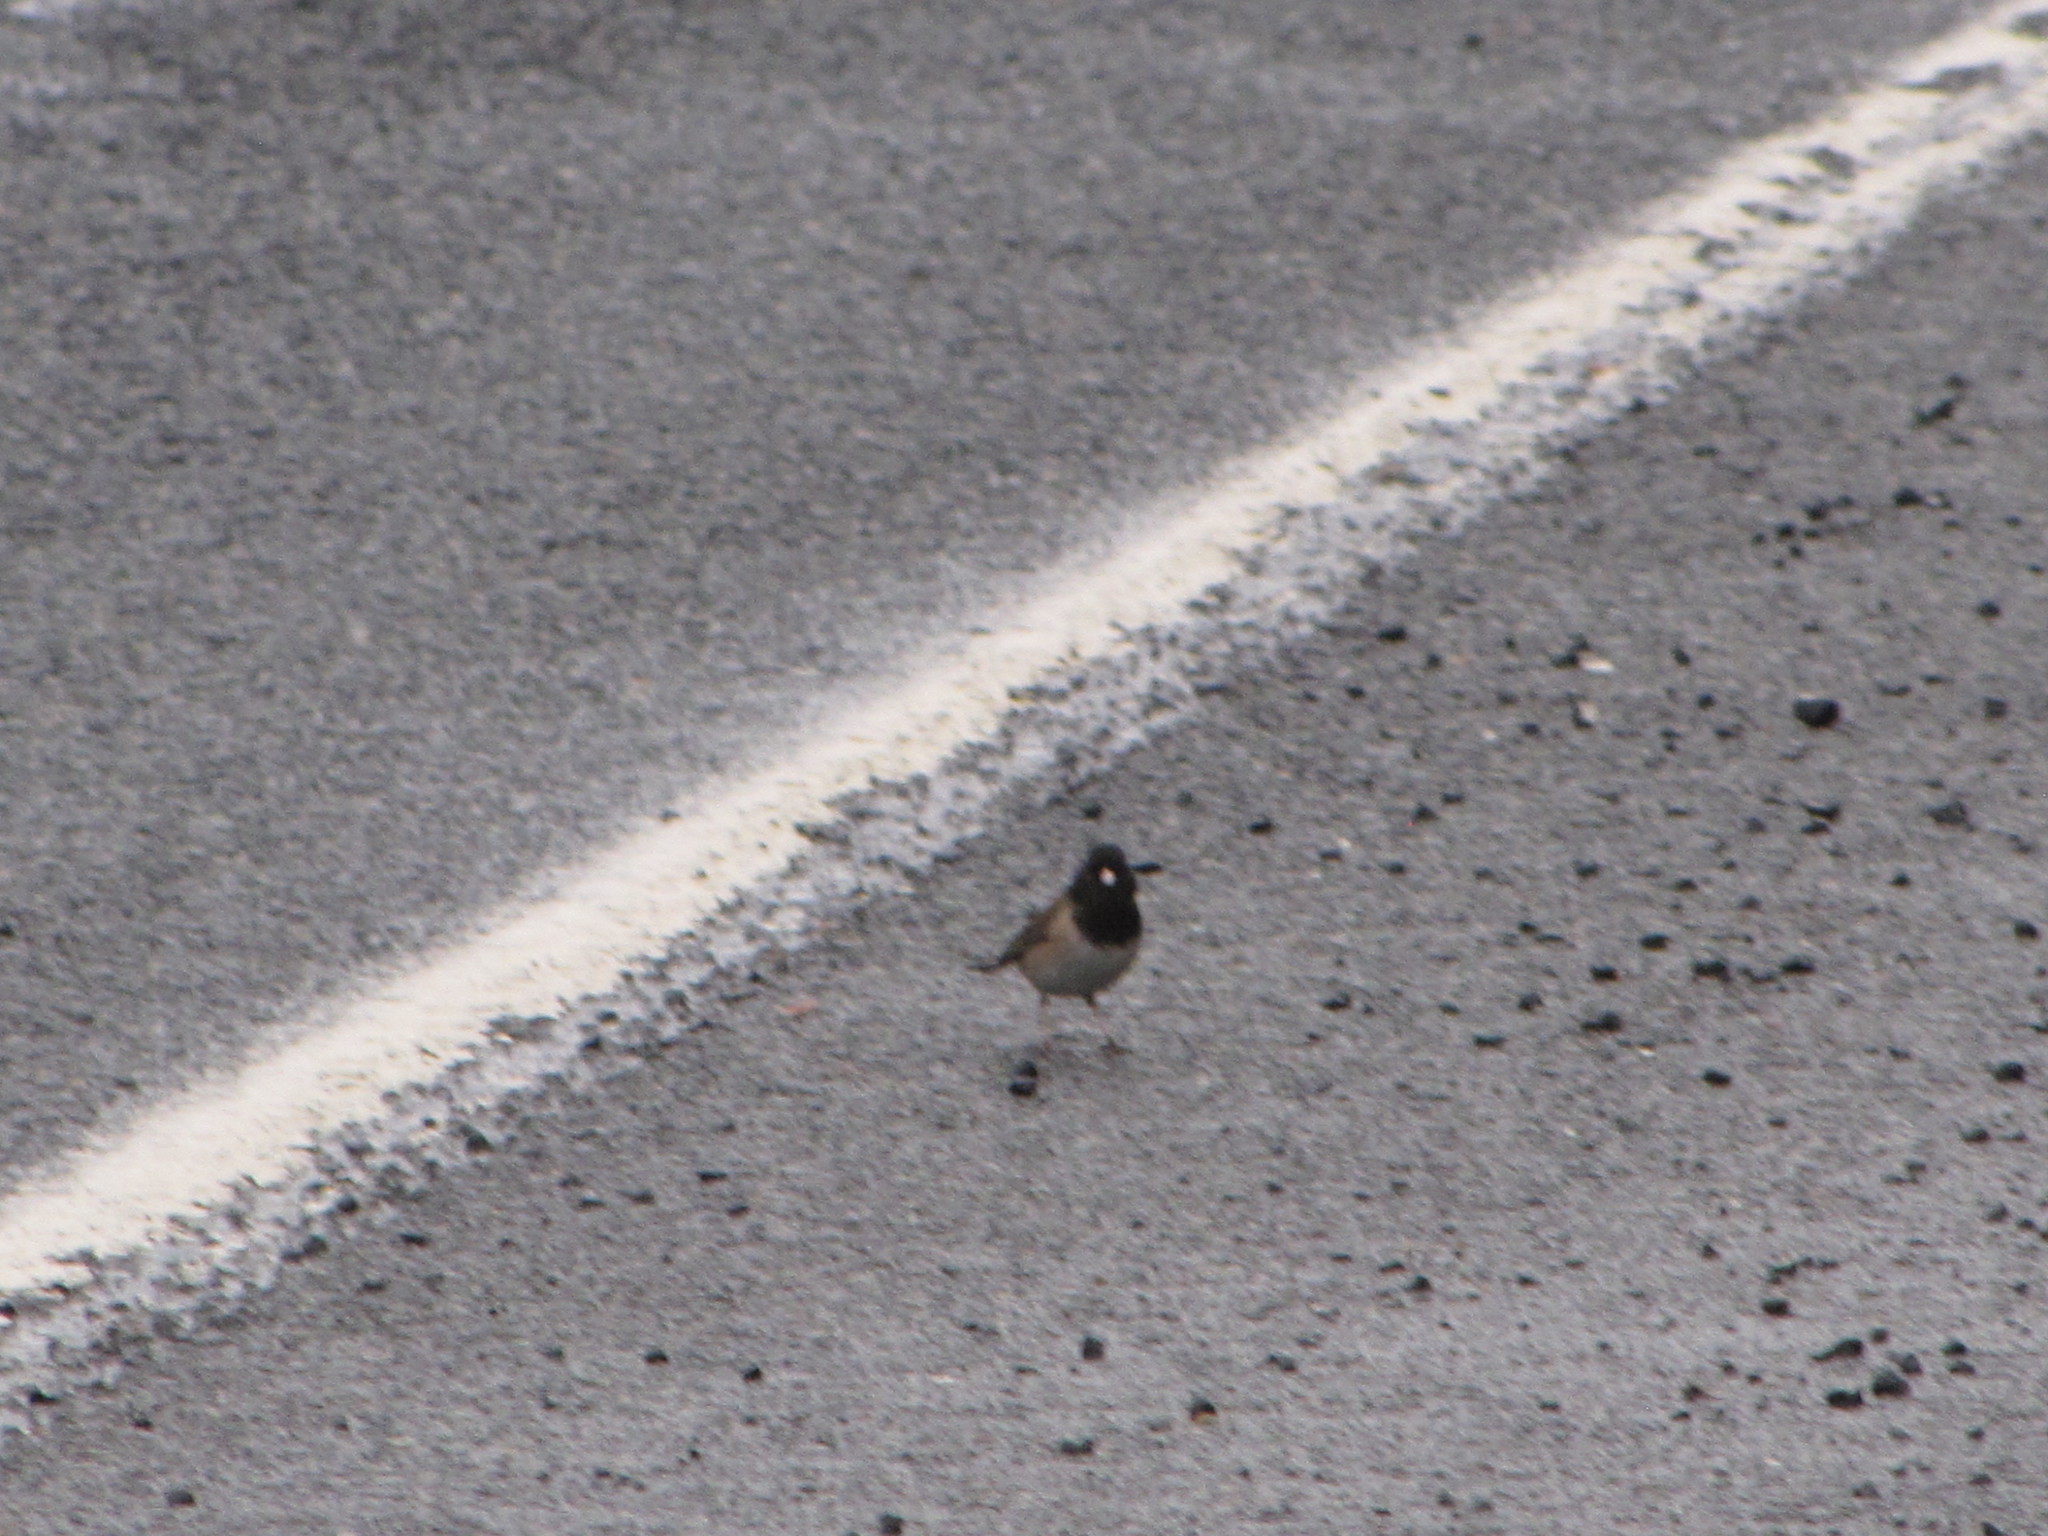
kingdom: Animalia
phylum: Chordata
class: Aves
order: Passeriformes
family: Passerellidae
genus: Junco
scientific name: Junco hyemalis
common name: Dark-eyed junco
